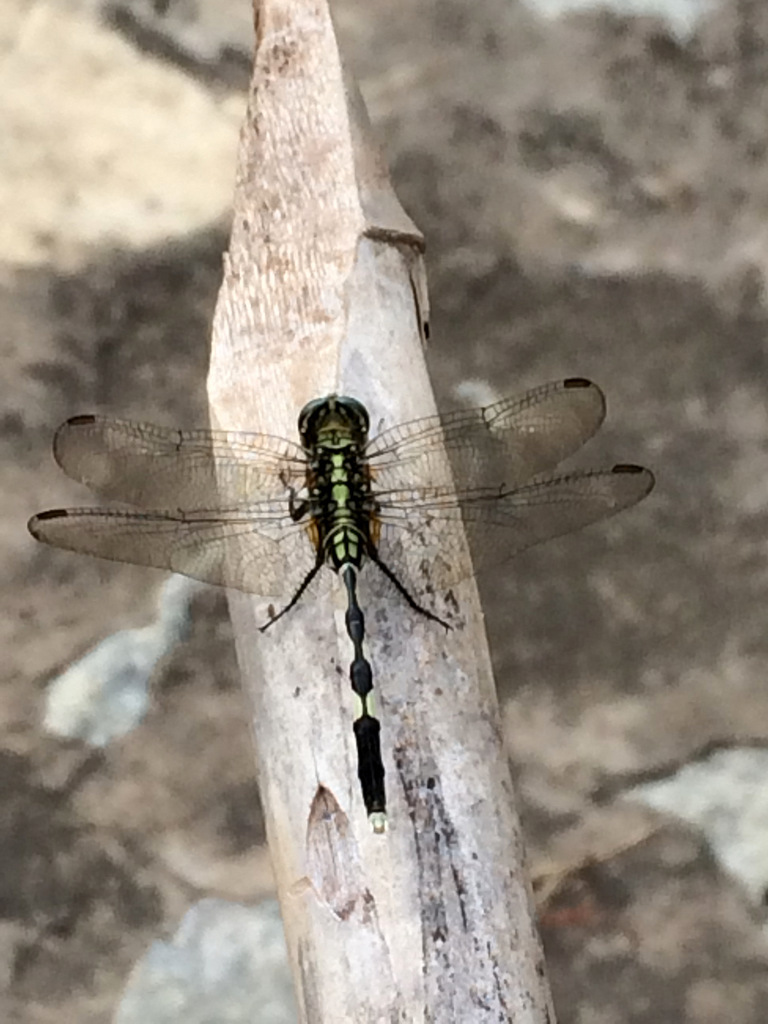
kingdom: Animalia
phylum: Arthropoda
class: Insecta
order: Odonata
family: Libellulidae
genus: Orthetrum
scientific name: Orthetrum sabina
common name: Slender skimmer
